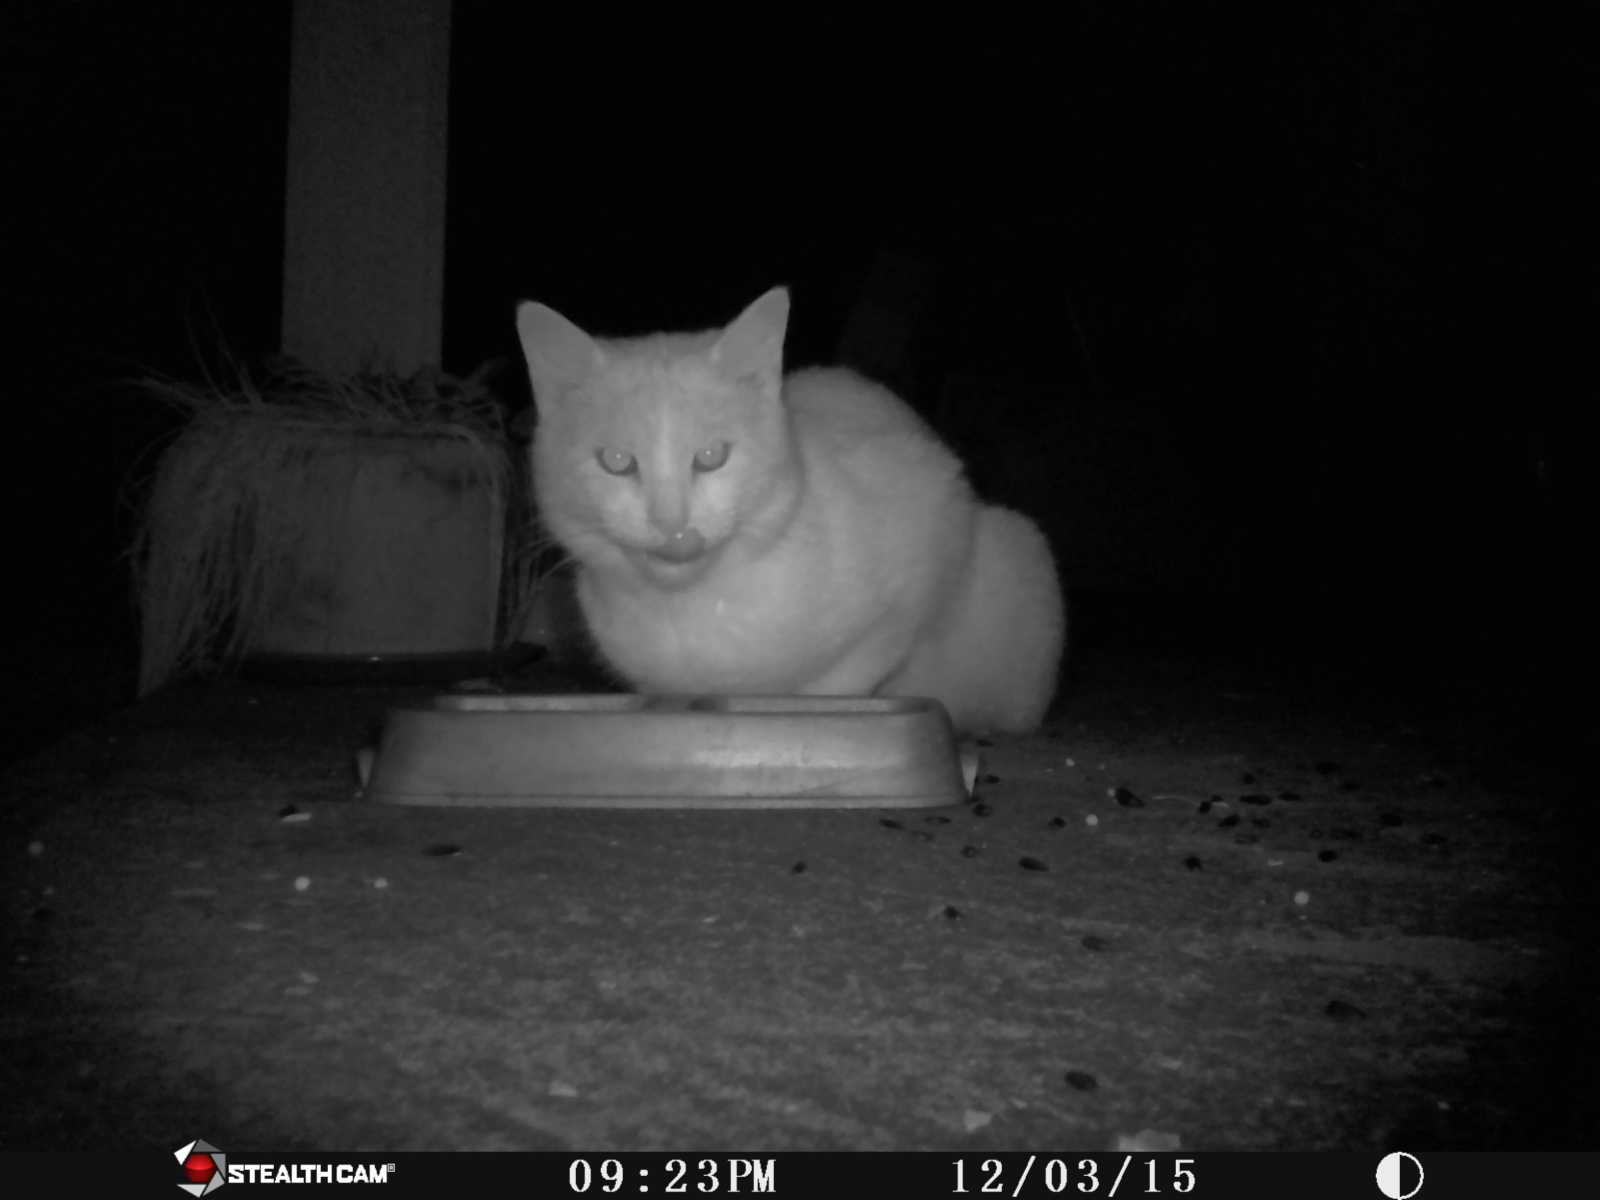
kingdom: Animalia
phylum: Chordata
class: Mammalia
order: Carnivora
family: Felidae
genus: Felis
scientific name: Felis catus
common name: Domestic cat
